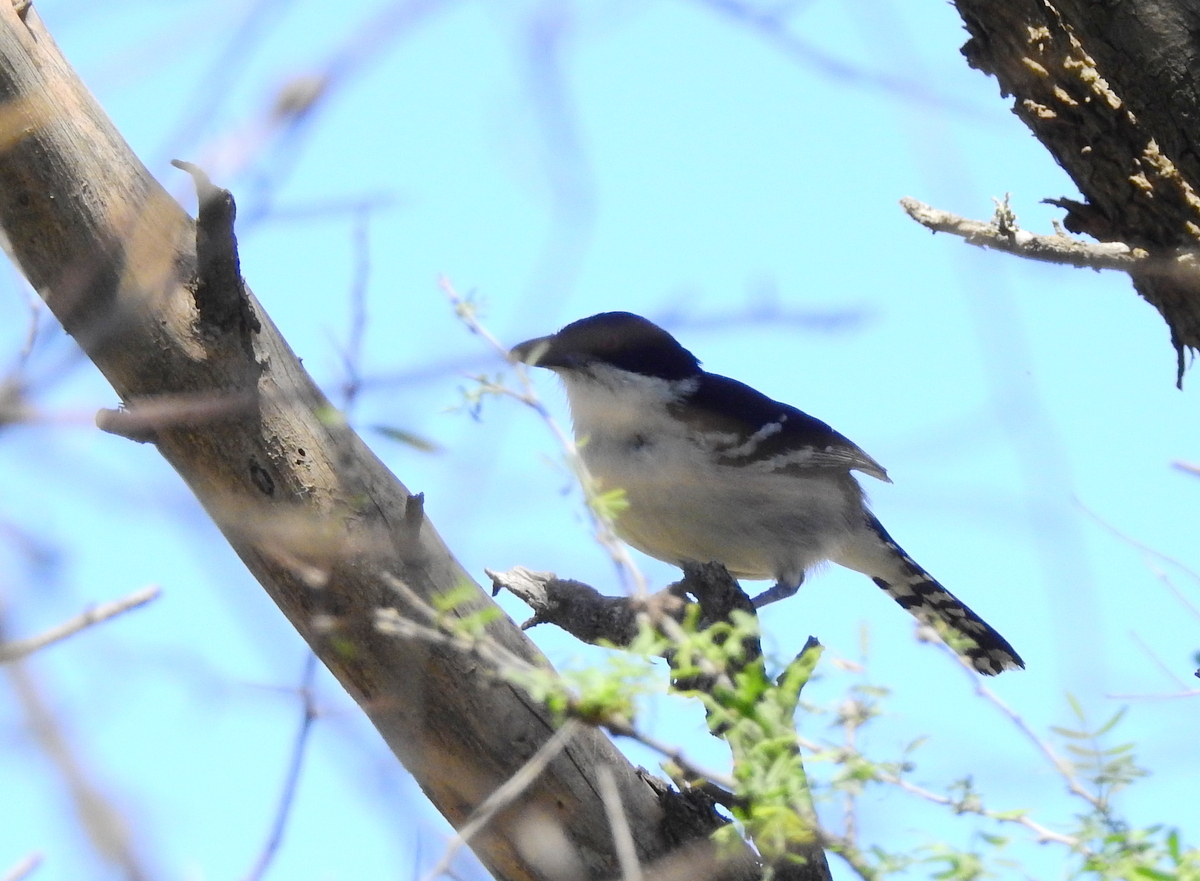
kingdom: Animalia
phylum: Chordata
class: Aves
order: Passeriformes
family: Thamnophilidae
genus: Taraba
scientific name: Taraba major
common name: Great antshrike
